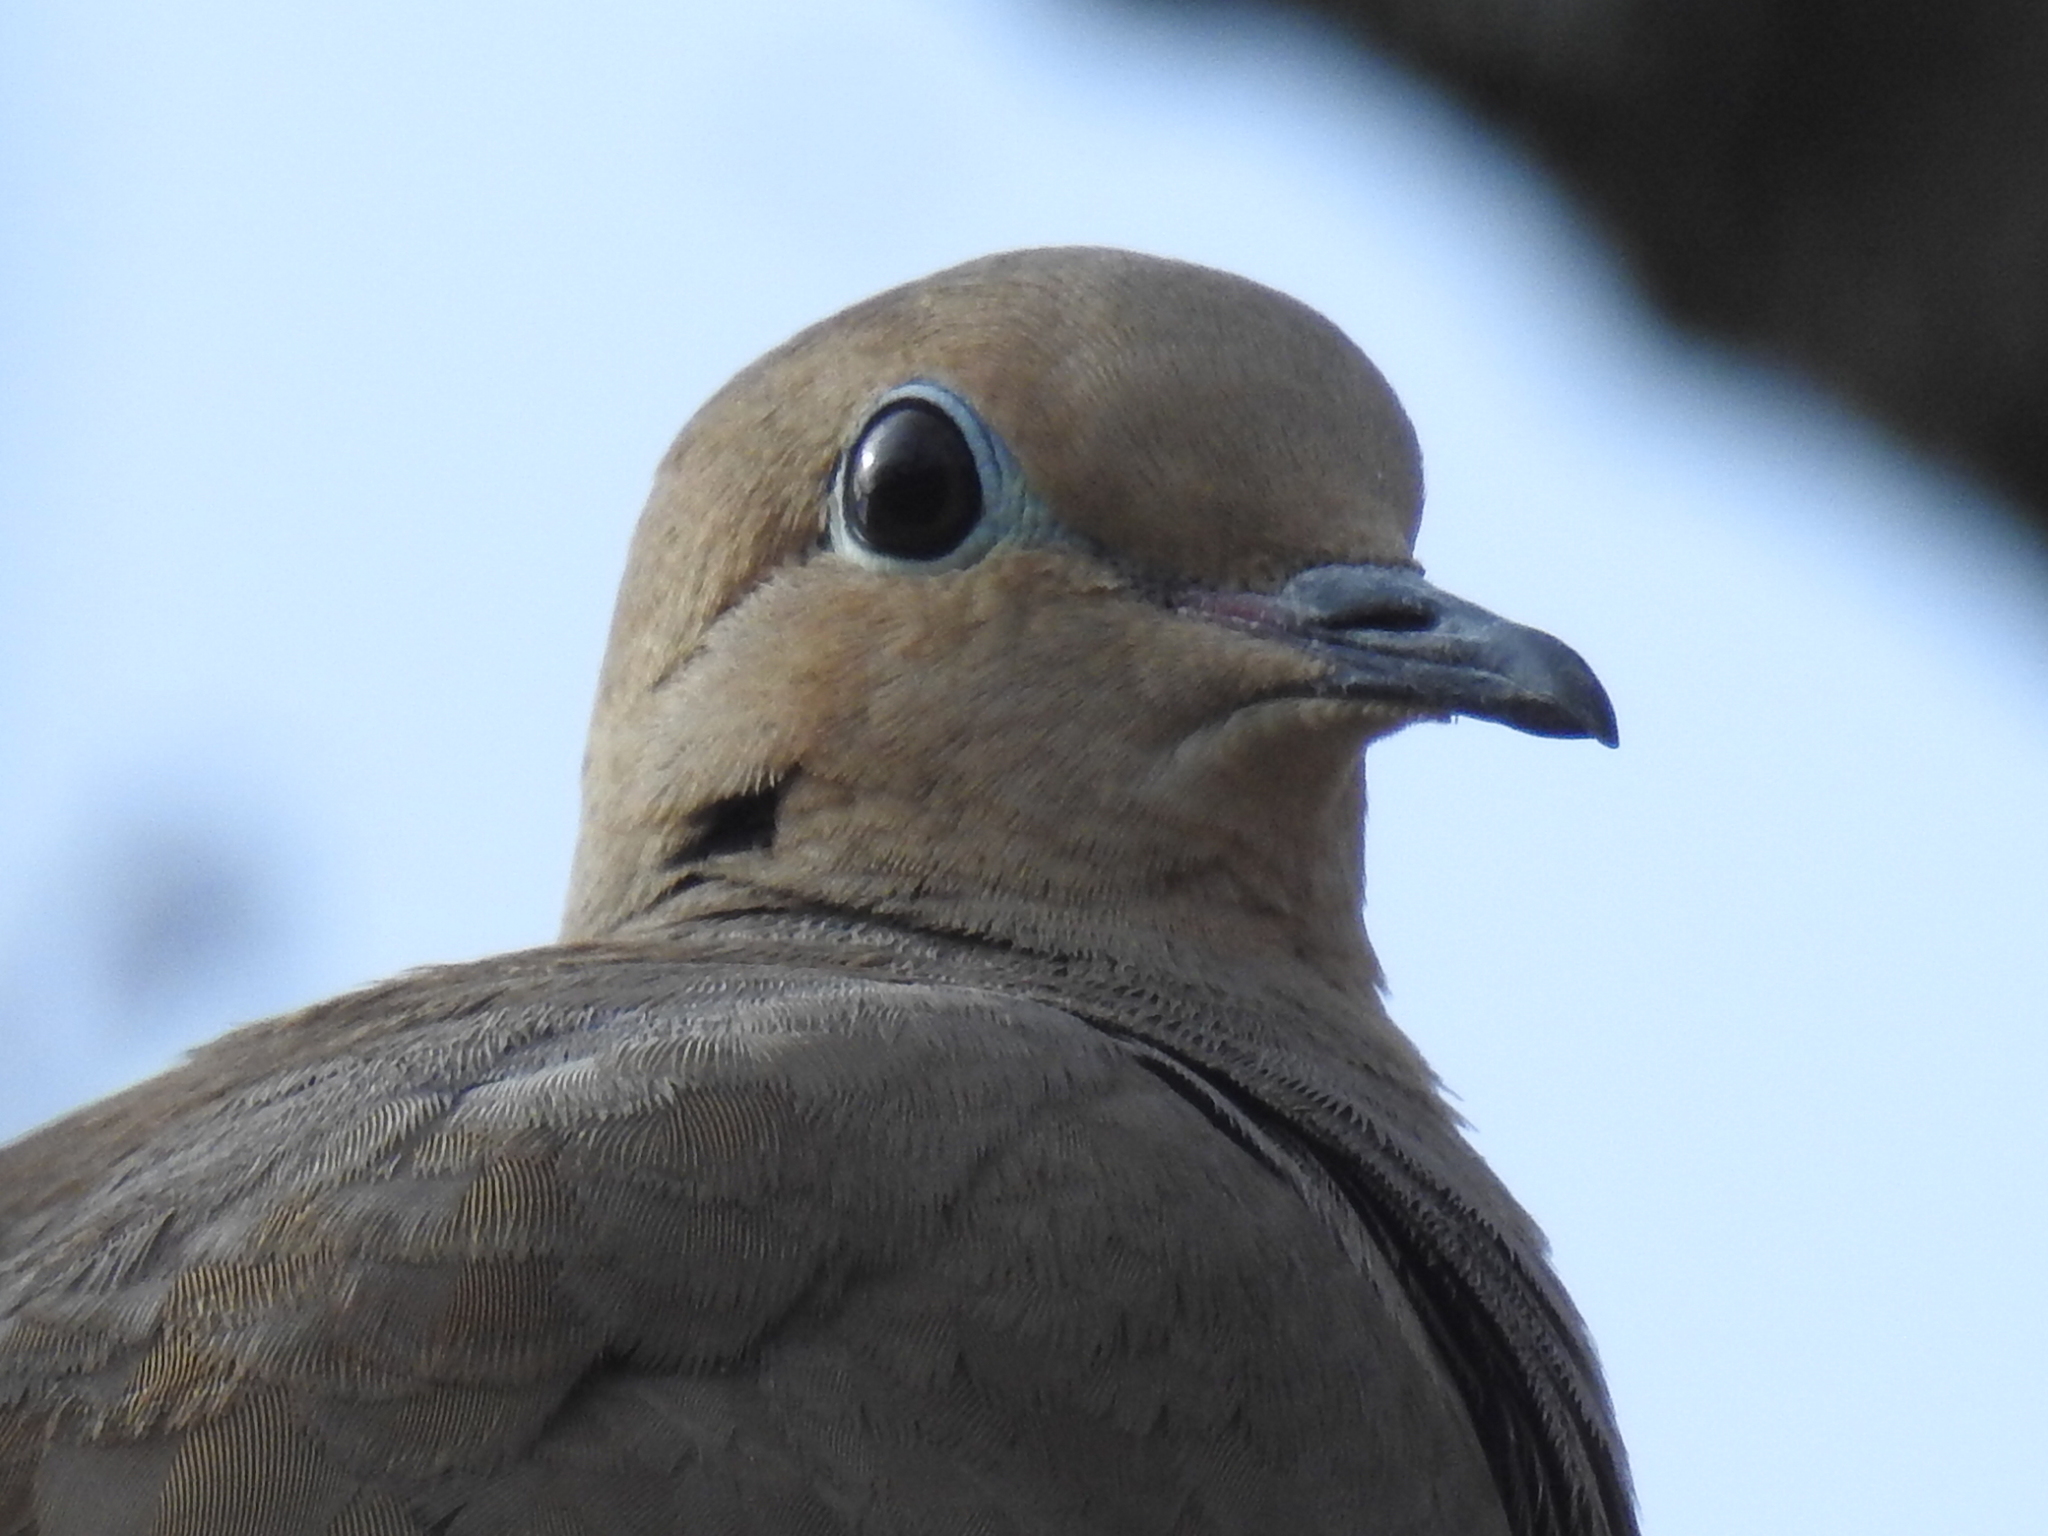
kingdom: Animalia
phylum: Chordata
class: Aves
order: Columbiformes
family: Columbidae
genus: Zenaida
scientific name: Zenaida macroura
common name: Mourning dove
